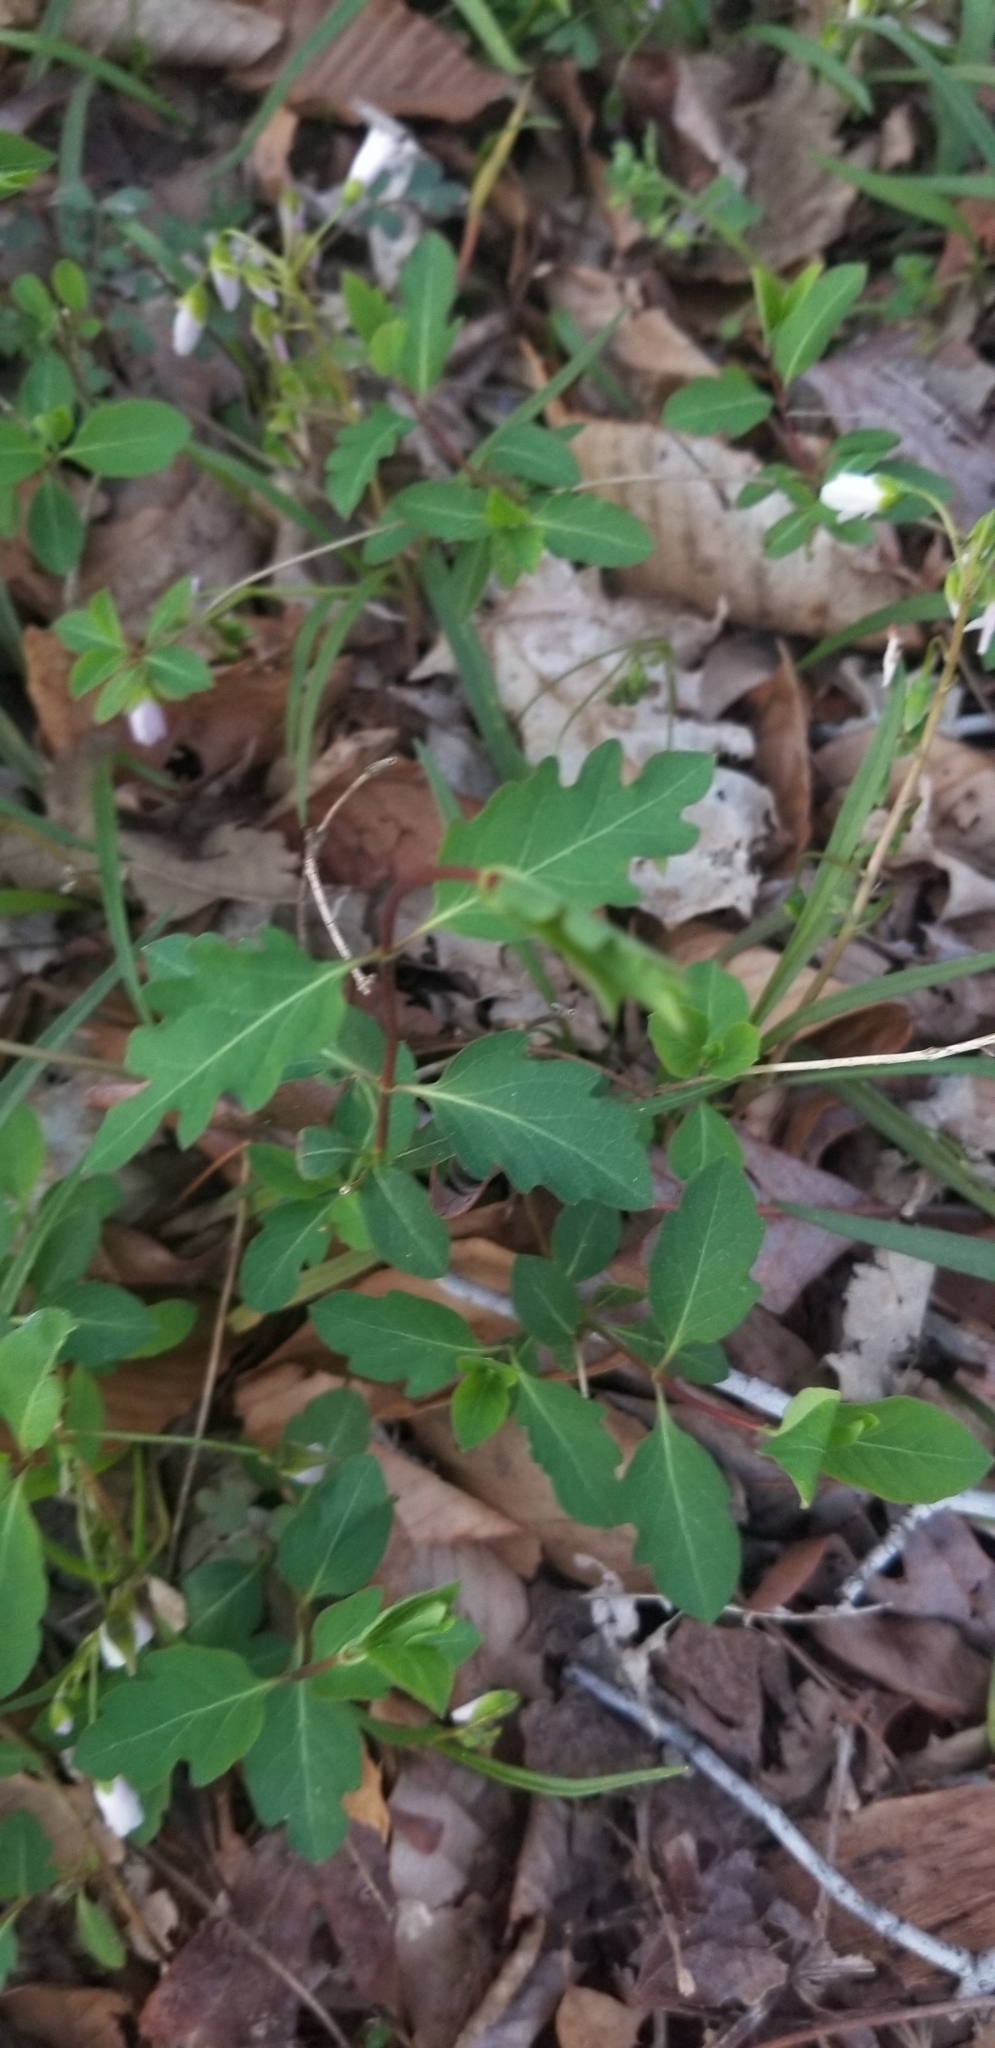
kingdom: Plantae
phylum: Tracheophyta
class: Magnoliopsida
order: Dipsacales
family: Caprifoliaceae
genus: Lonicera
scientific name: Lonicera japonica
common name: Japanese honeysuckle
